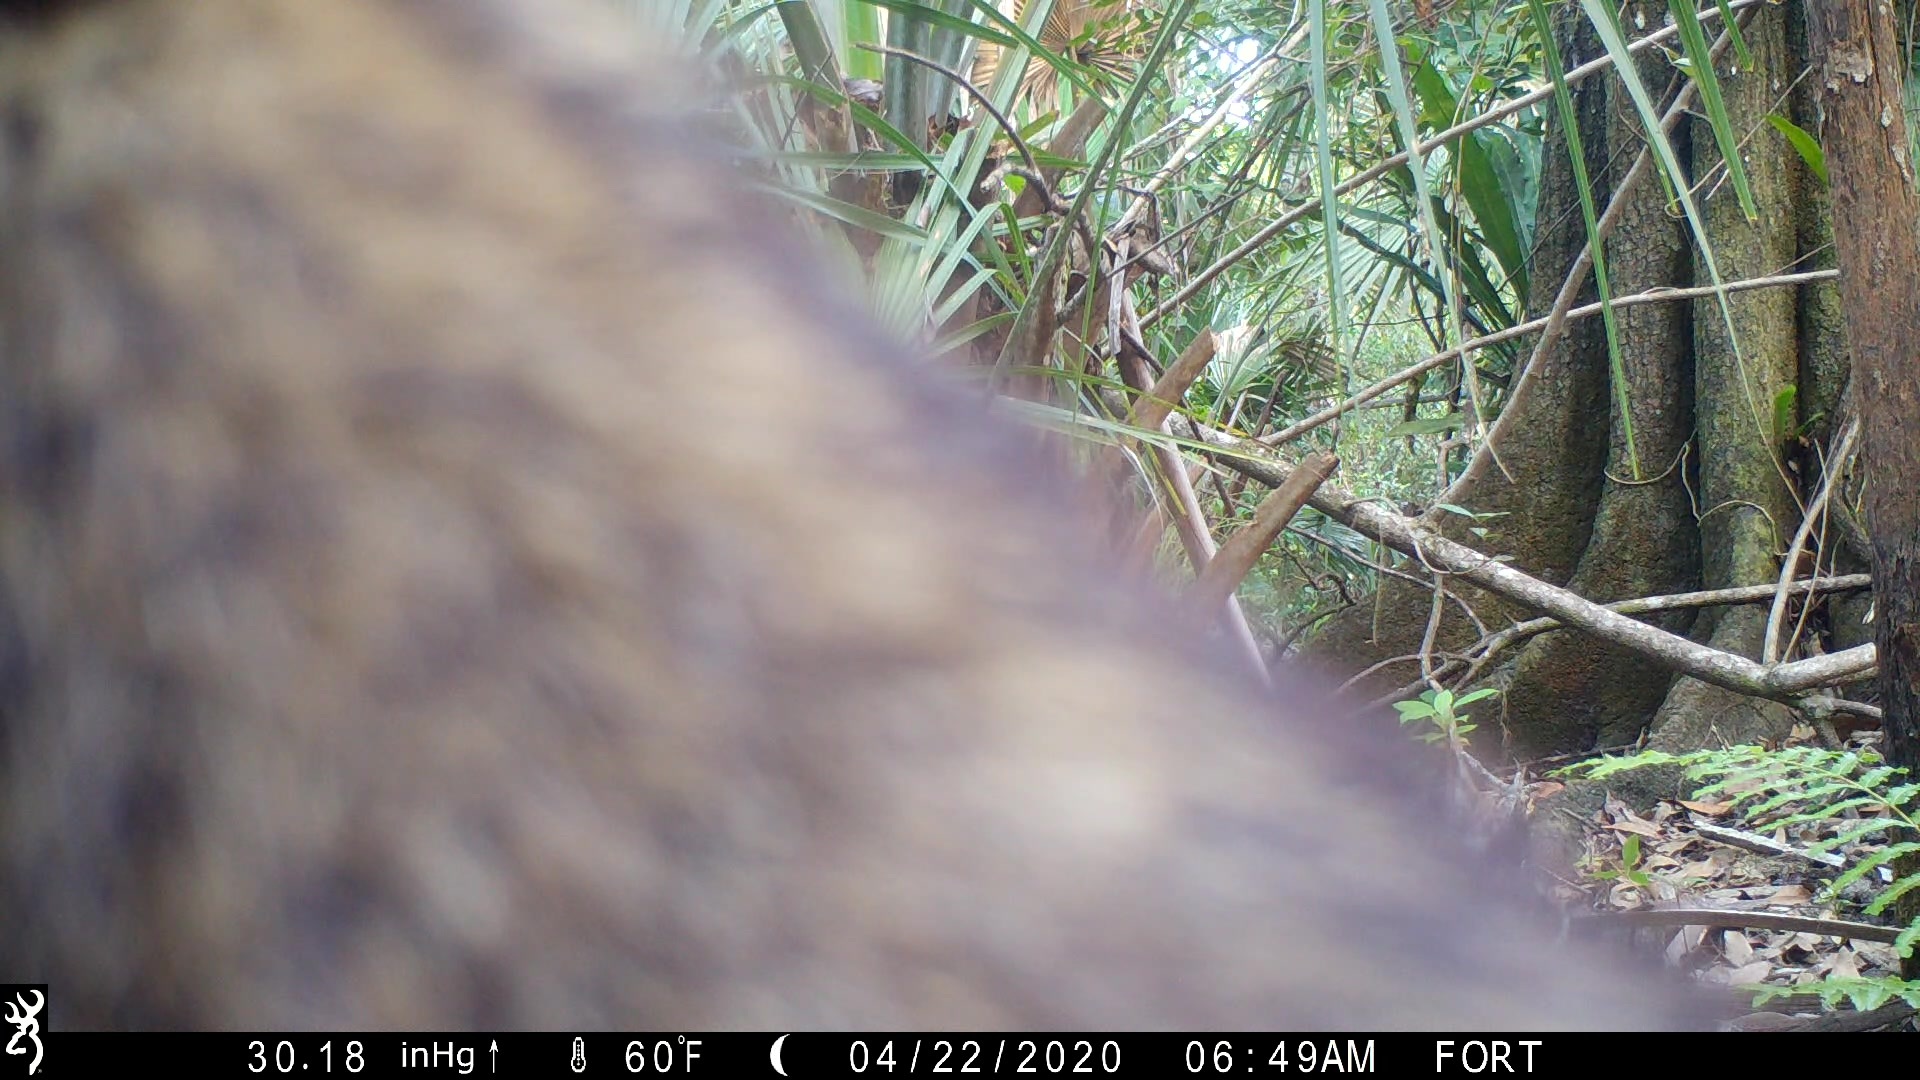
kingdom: Animalia
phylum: Chordata
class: Mammalia
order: Carnivora
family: Procyonidae
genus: Procyon
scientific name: Procyon lotor
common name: Raccoon
